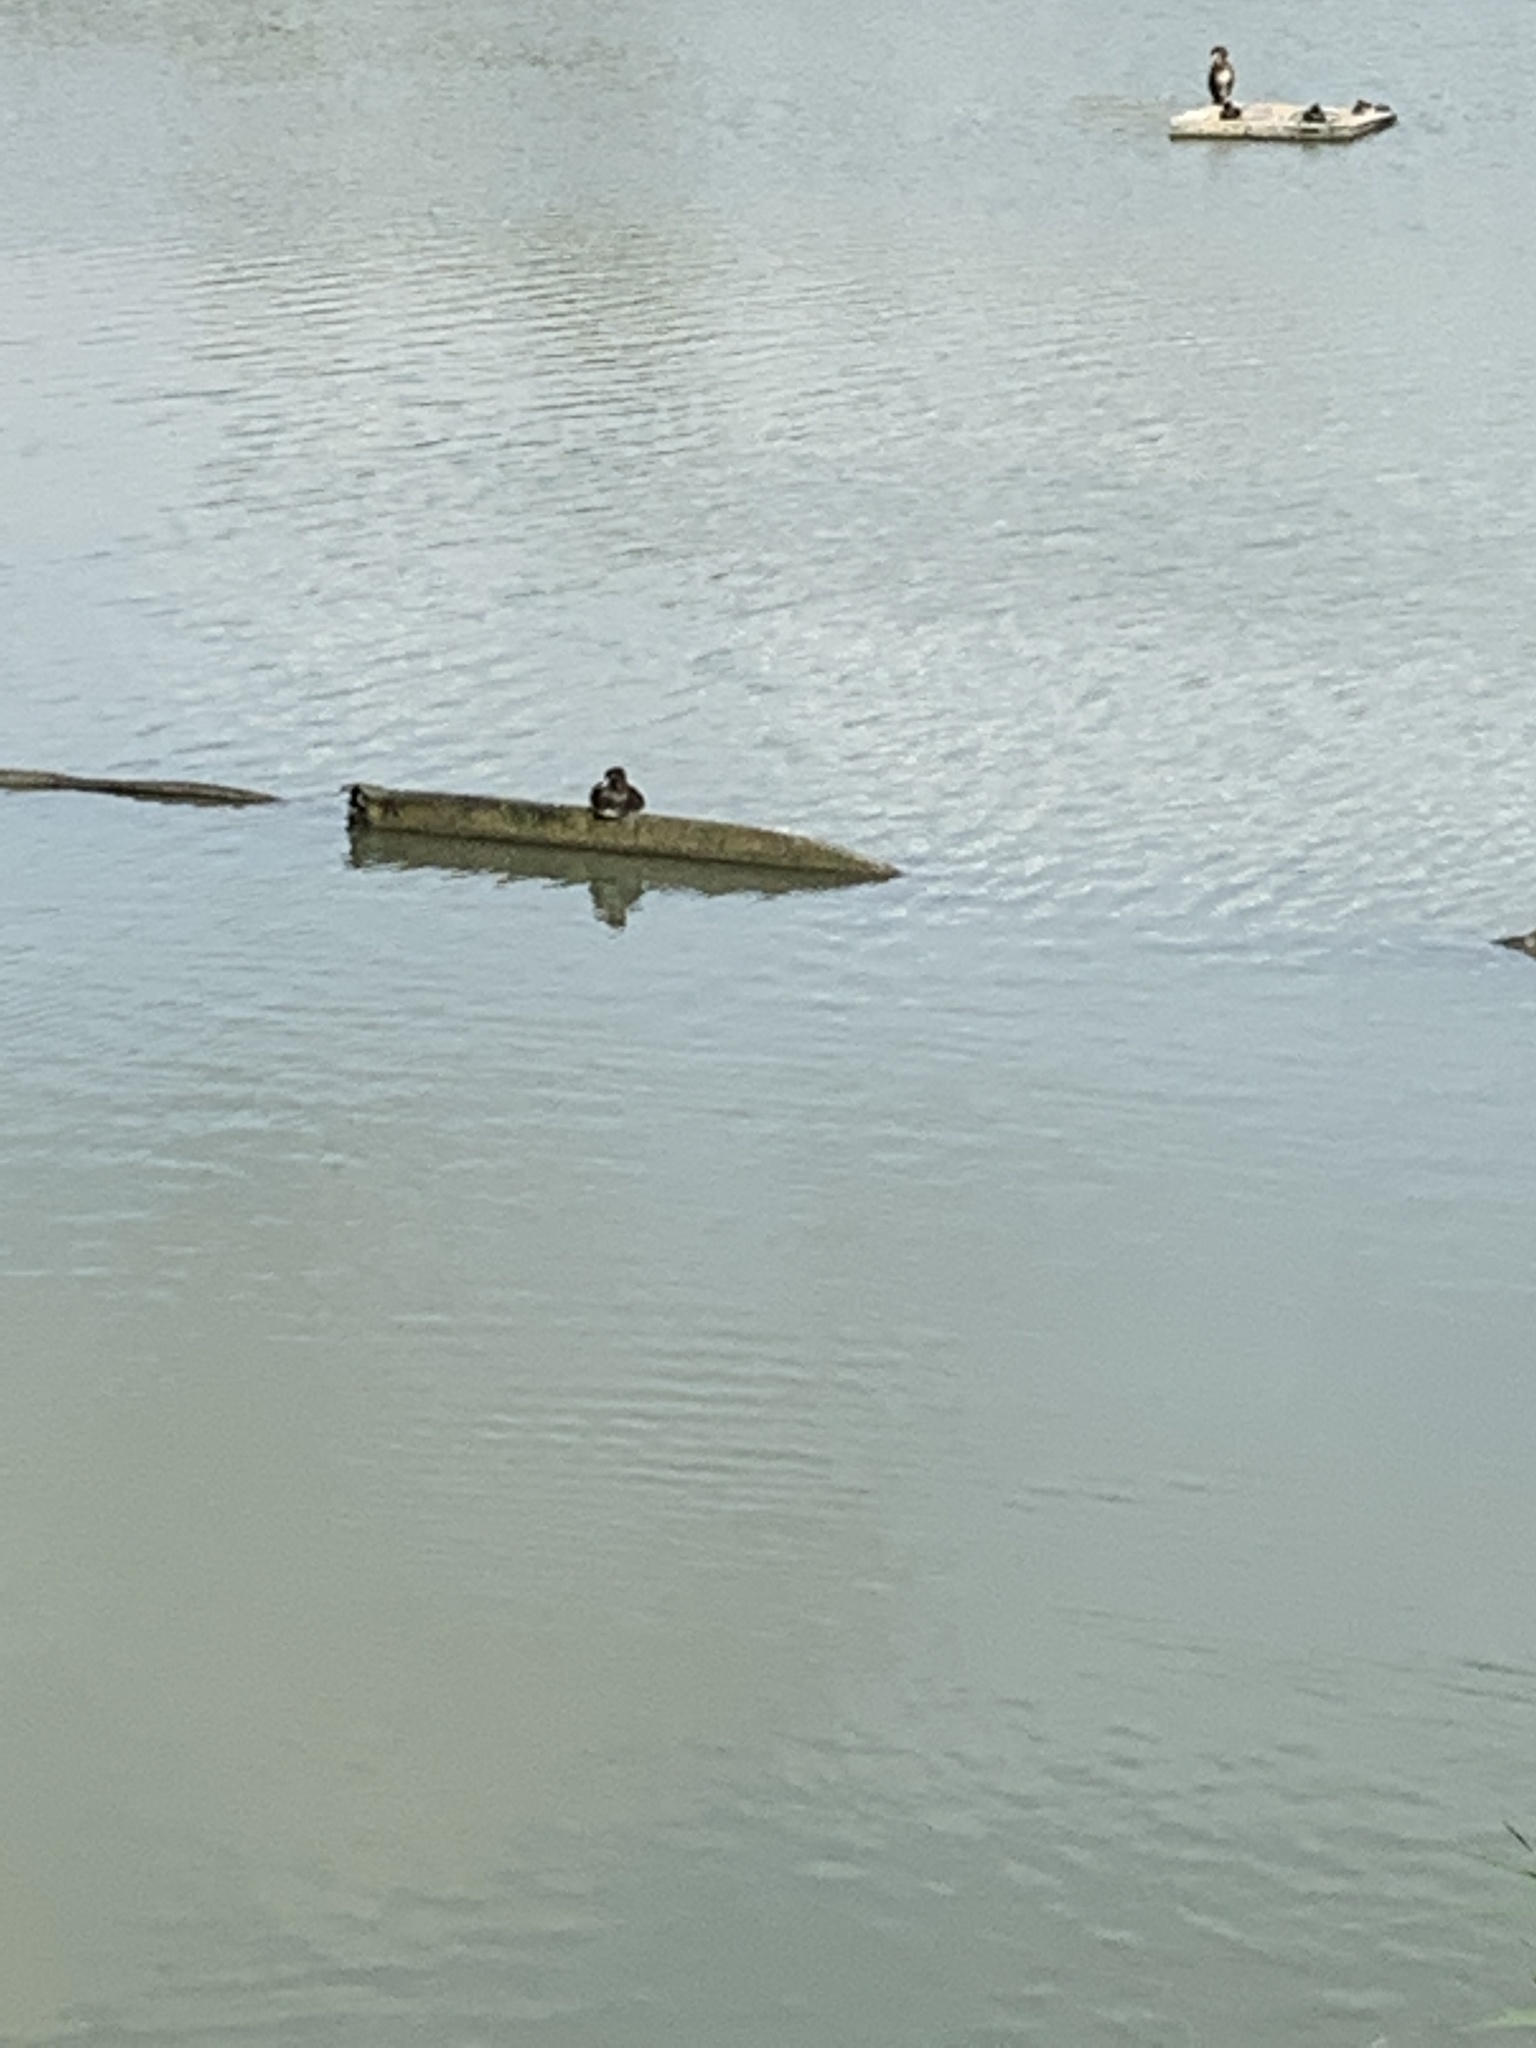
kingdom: Animalia
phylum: Chordata
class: Aves
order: Anseriformes
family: Anatidae
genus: Aythya
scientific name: Aythya fuligula
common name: Tufted duck
